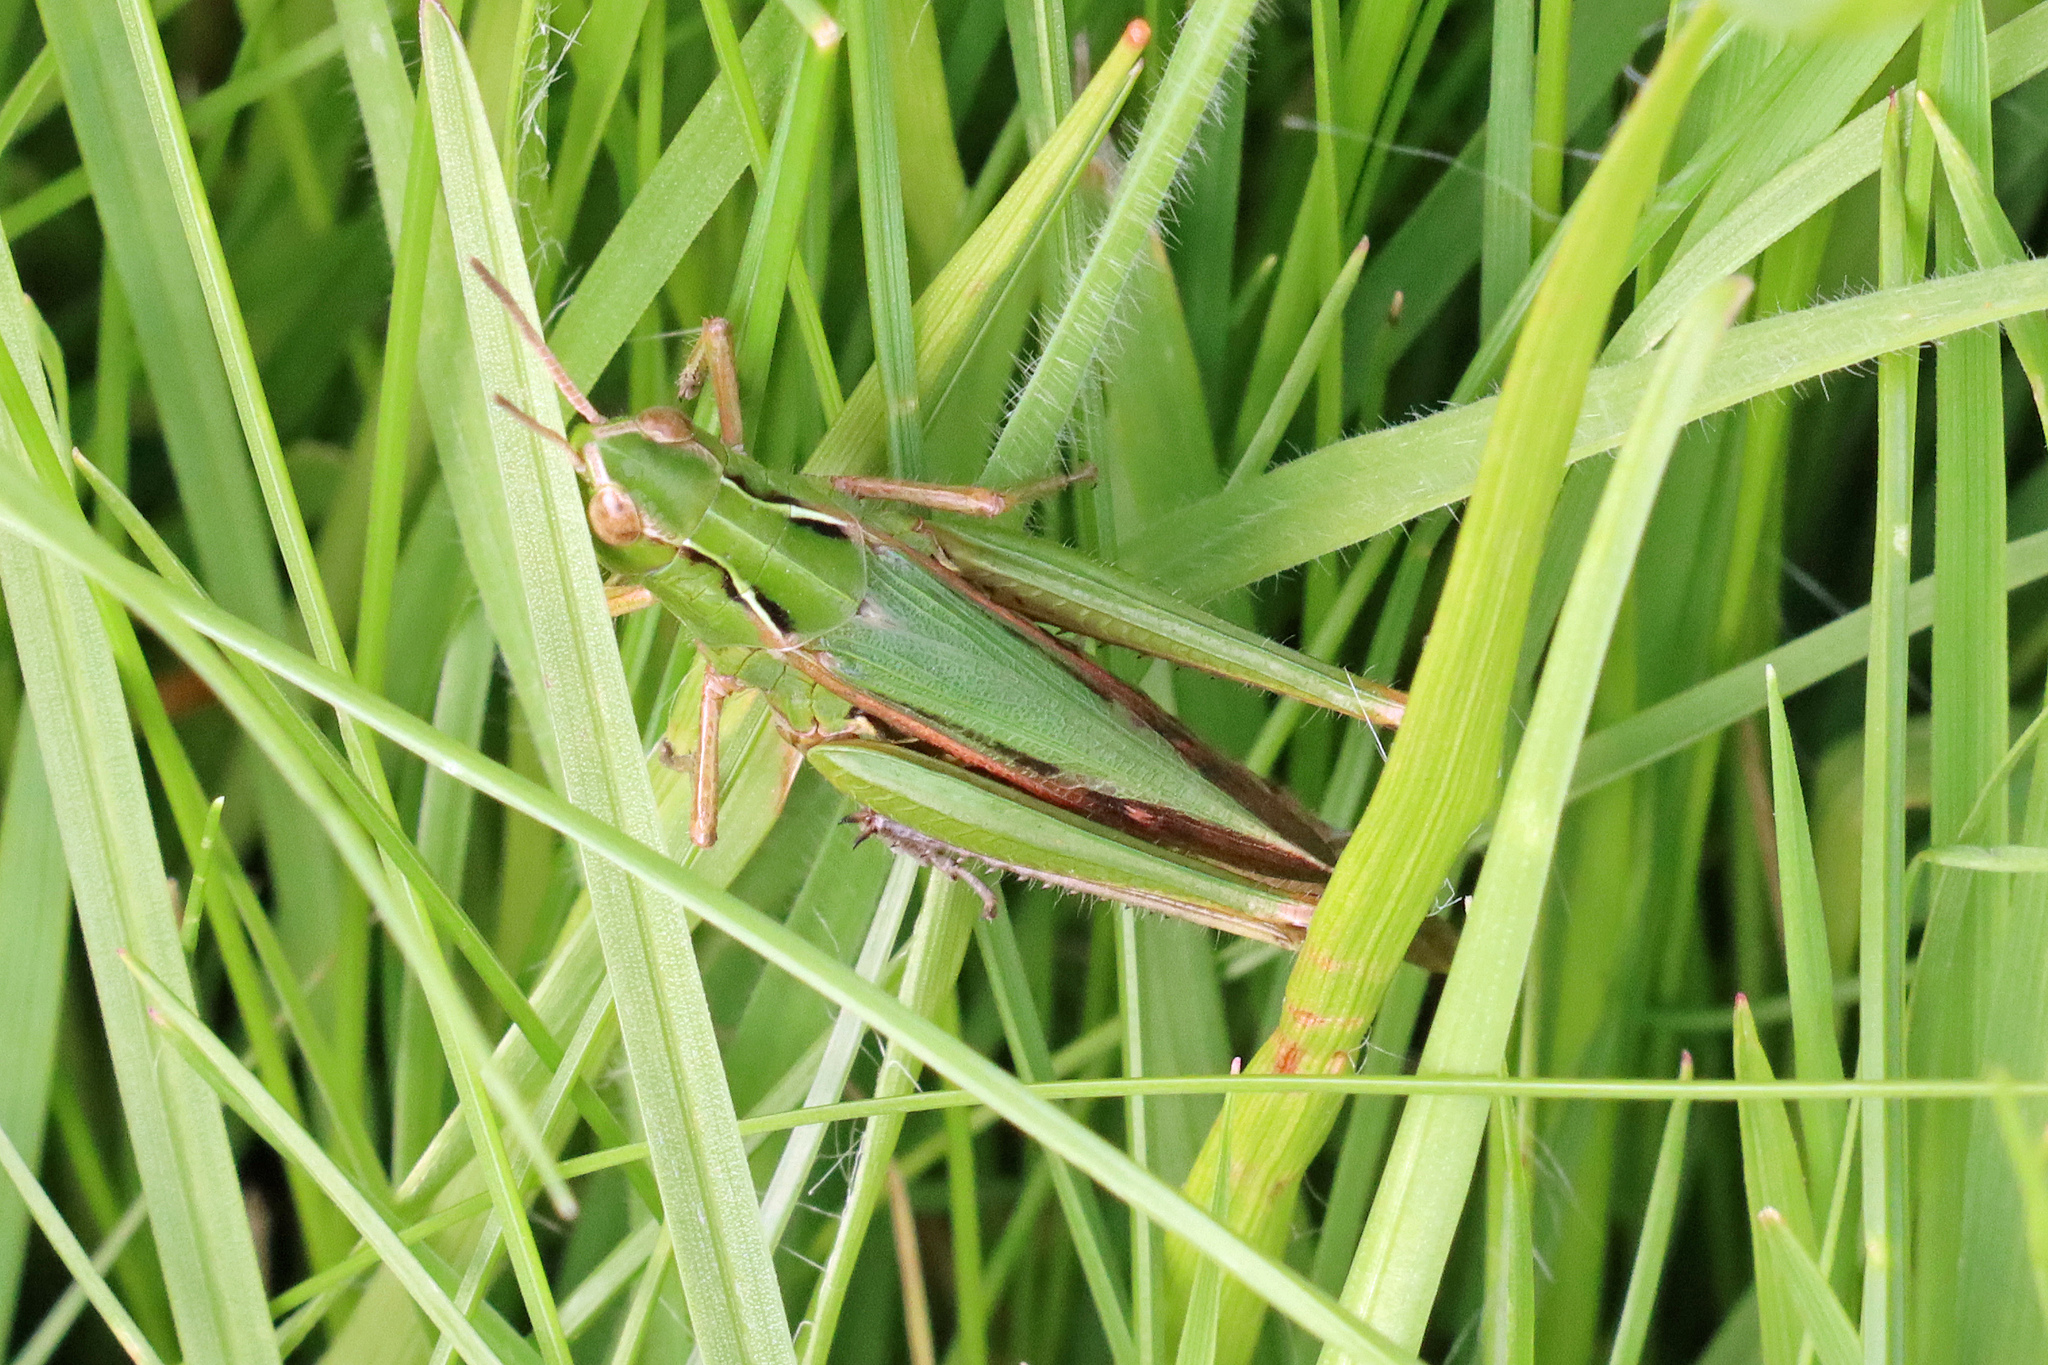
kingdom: Animalia
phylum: Arthropoda
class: Insecta
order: Orthoptera
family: Acrididae
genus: Omocestus
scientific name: Omocestus viridulus
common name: Common green grasshopper
